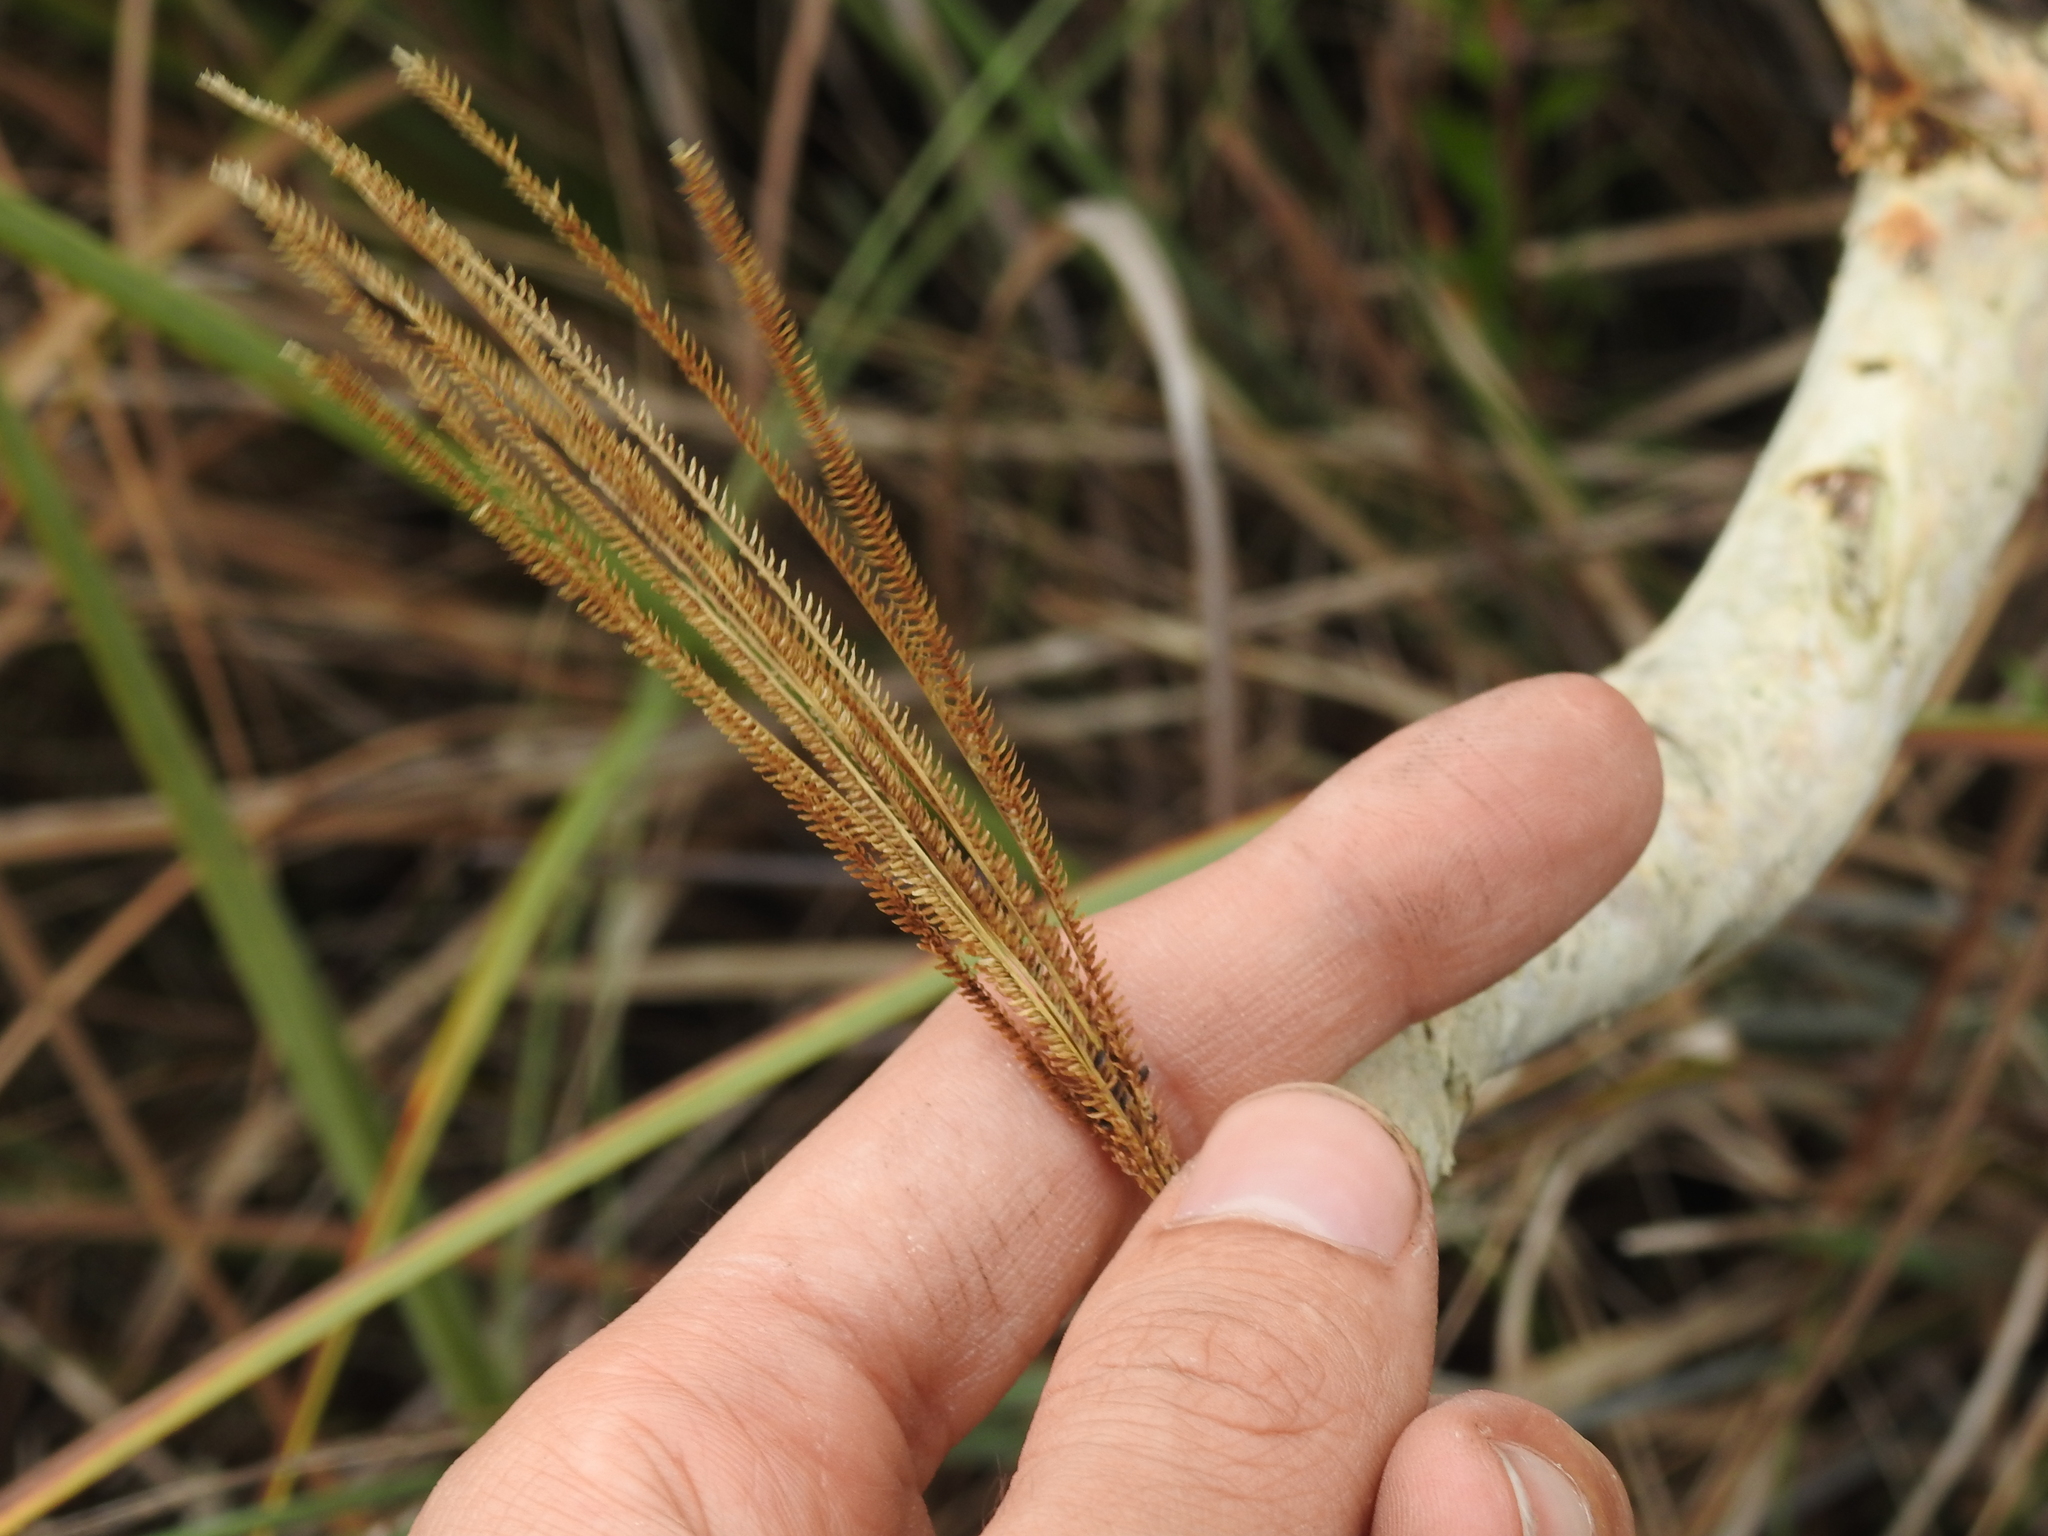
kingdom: Plantae
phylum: Tracheophyta
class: Liliopsida
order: Poales
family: Poaceae
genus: Eustachys
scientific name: Eustachys petraea
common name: Pinewoods fingergrass
